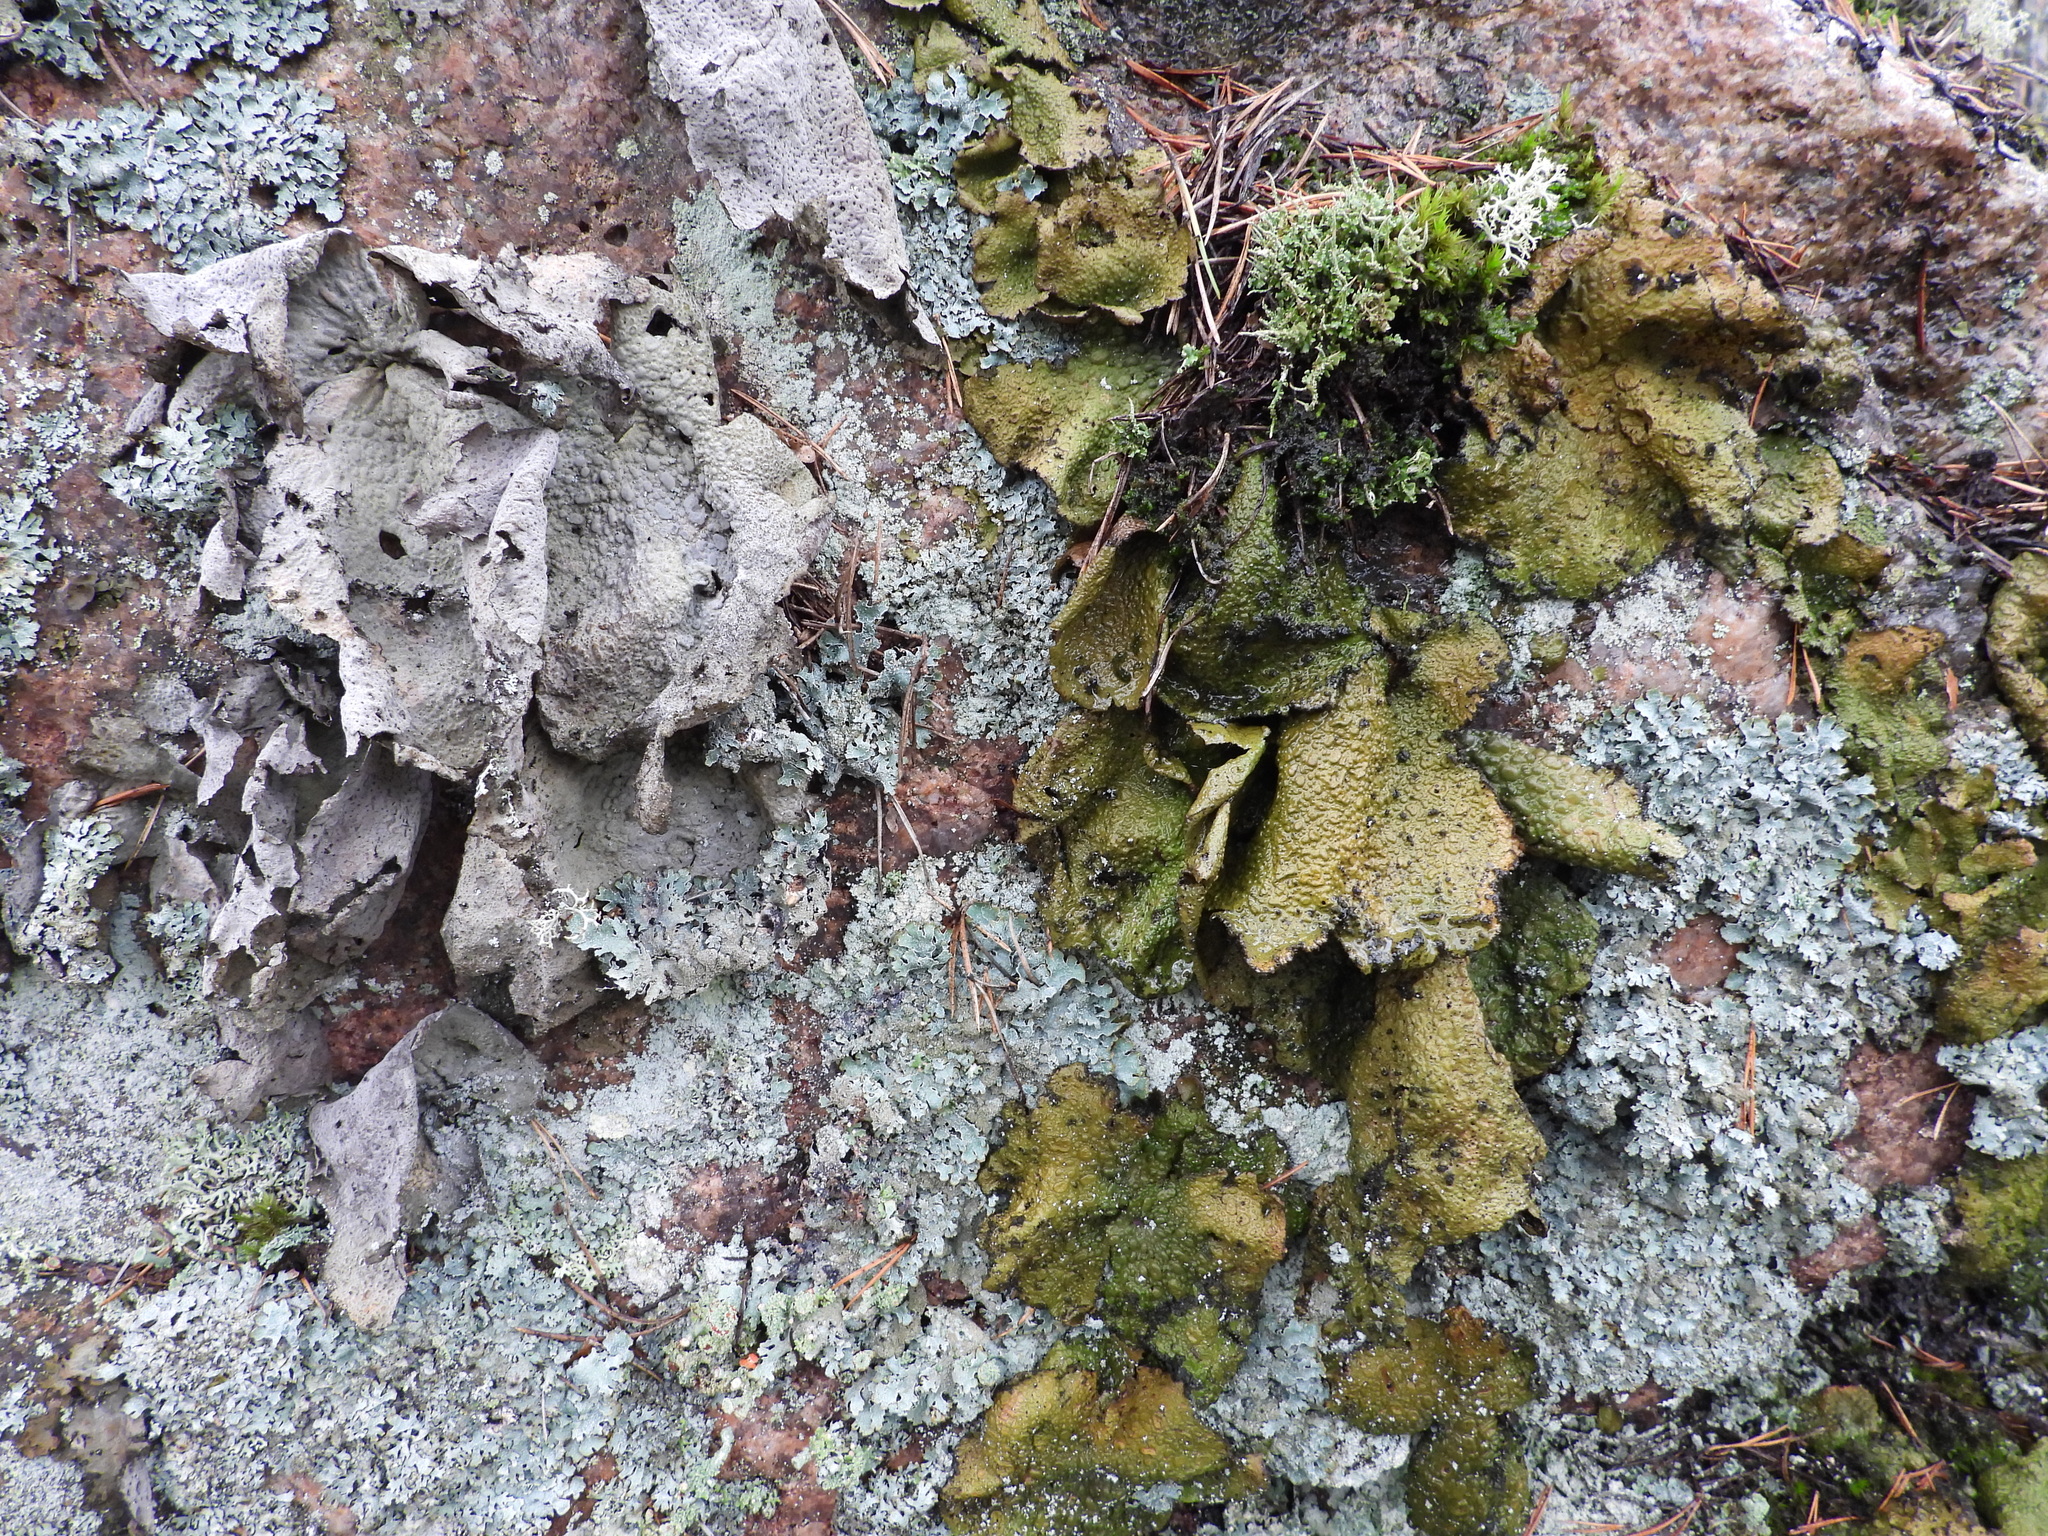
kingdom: Fungi
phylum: Ascomycota
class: Lecanoromycetes
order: Umbilicariales
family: Umbilicariaceae
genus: Lasallia
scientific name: Lasallia pustulata
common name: Blistered toadskin lichen
